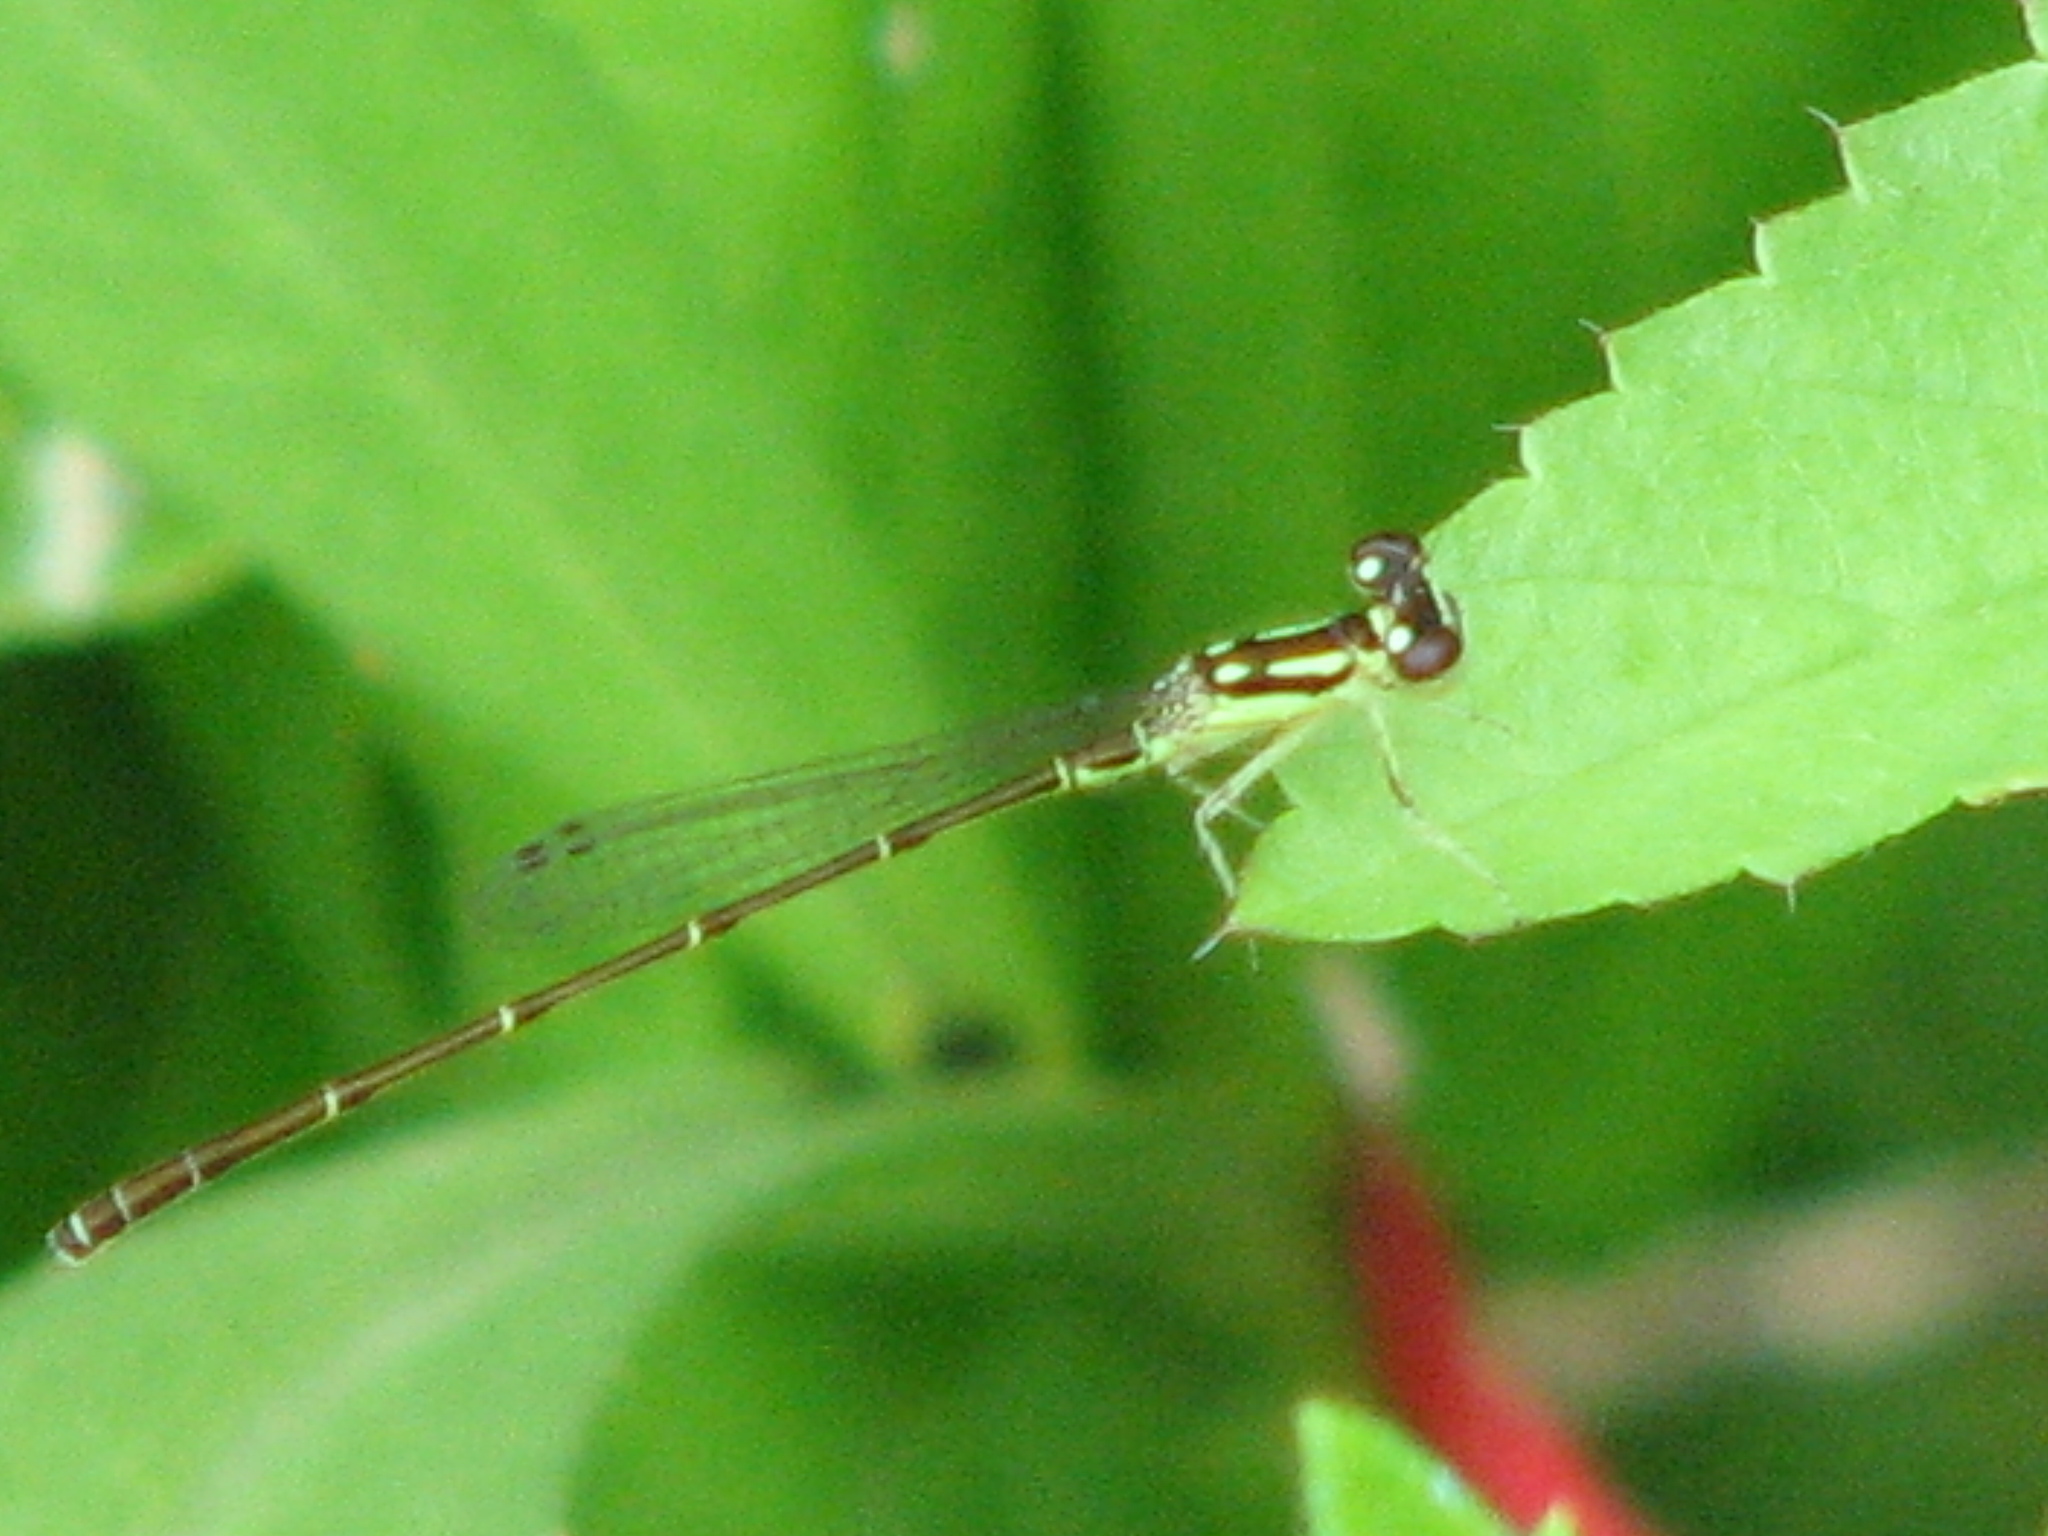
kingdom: Animalia
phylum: Arthropoda
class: Insecta
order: Odonata
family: Coenagrionidae
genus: Ischnura
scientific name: Ischnura posita
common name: Fragile forktail
